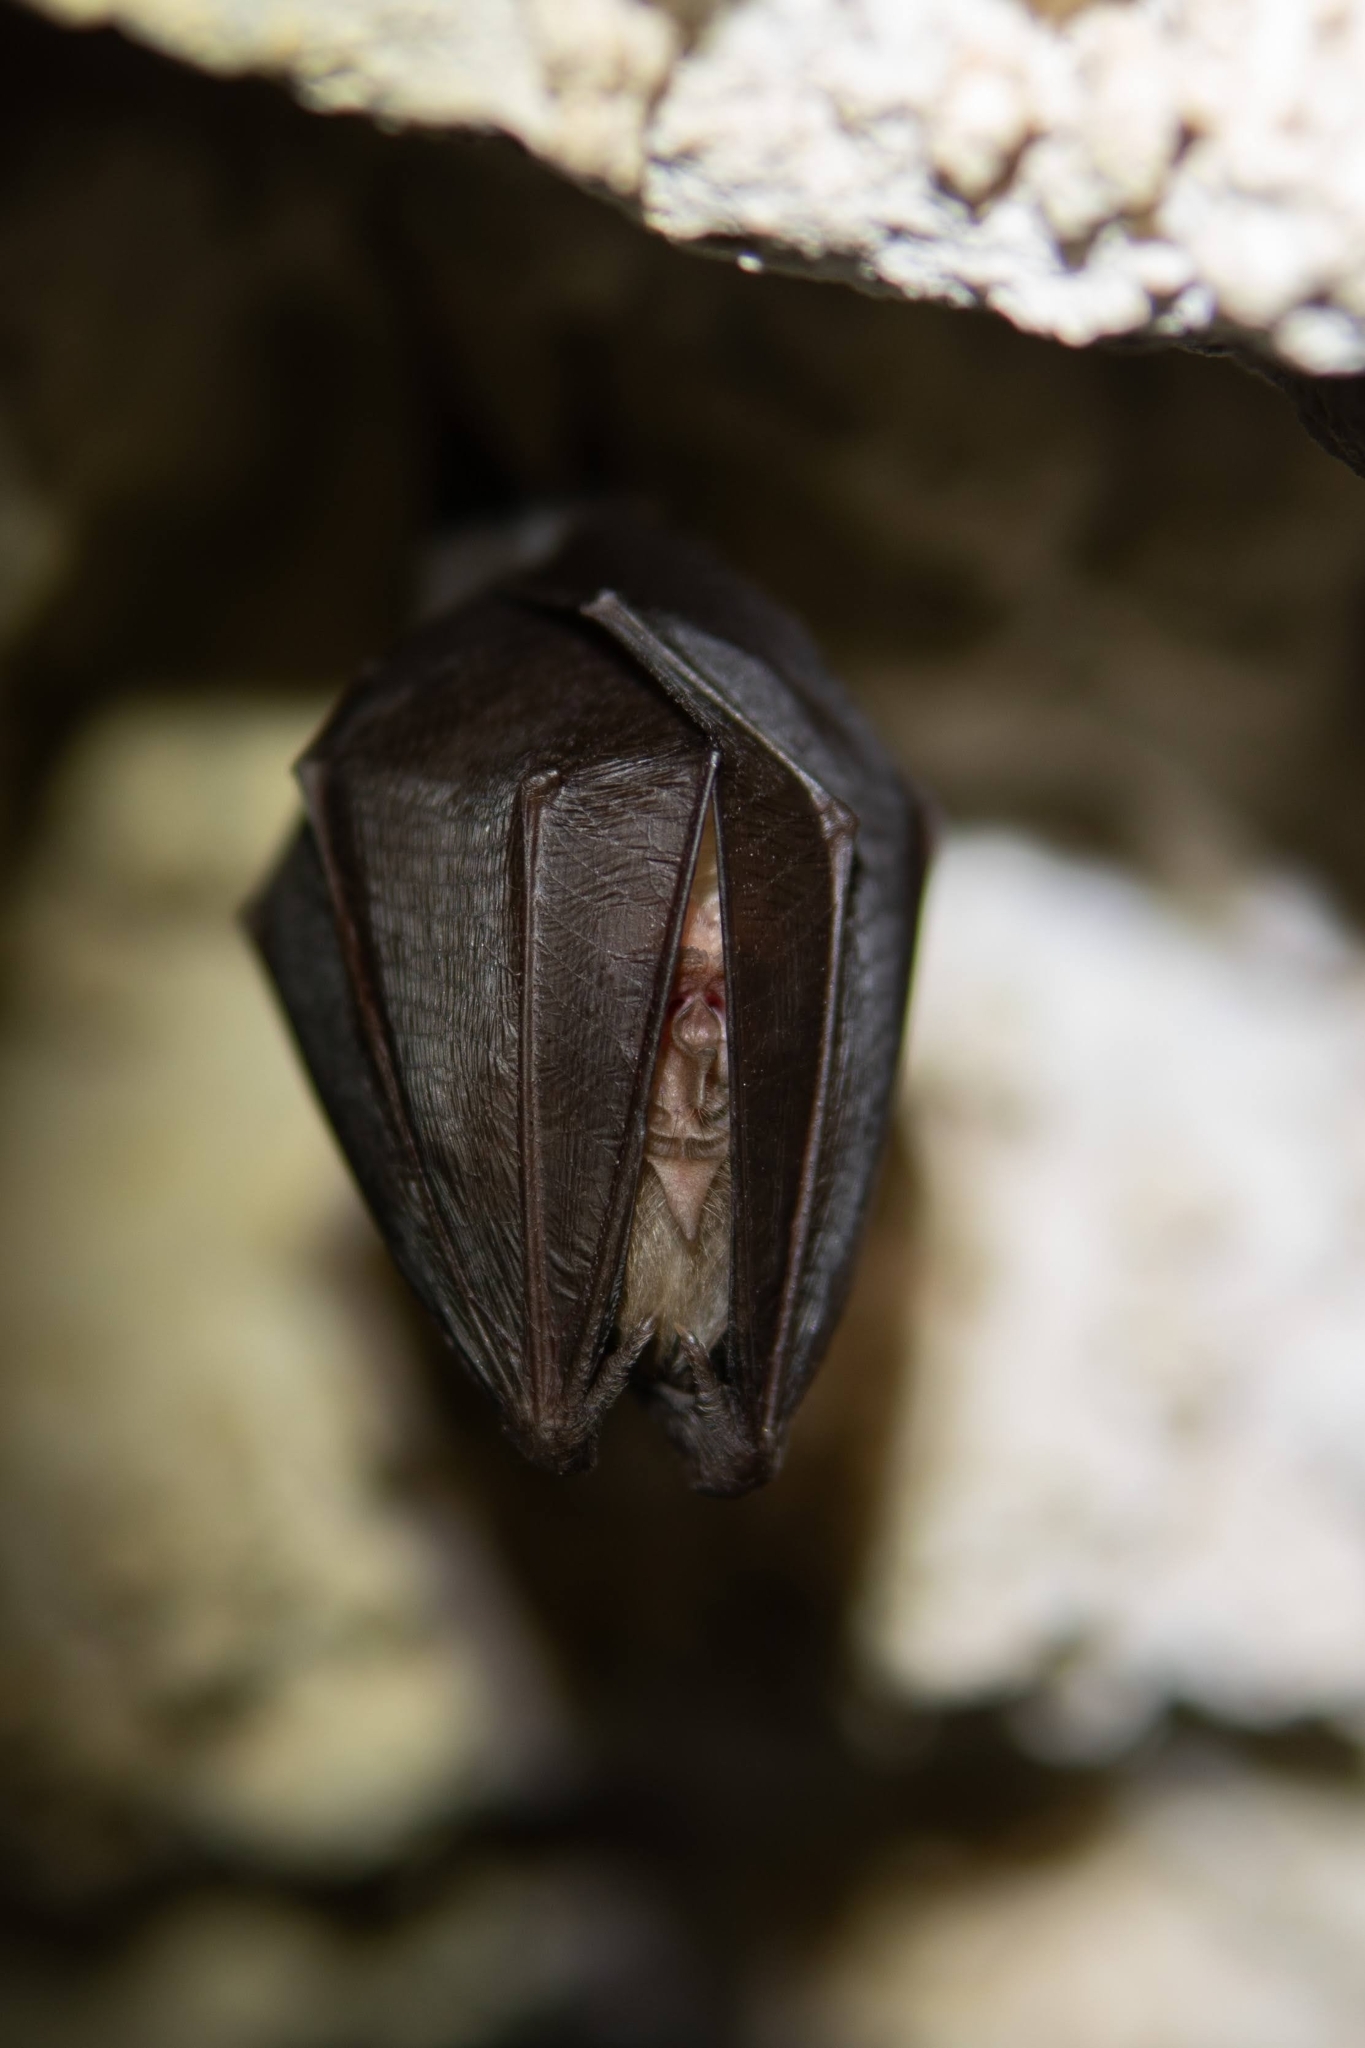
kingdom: Animalia
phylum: Chordata
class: Mammalia
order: Chiroptera
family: Rhinolophidae
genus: Rhinolophus
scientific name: Rhinolophus hipposideros
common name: Lesser horseshoe bat
